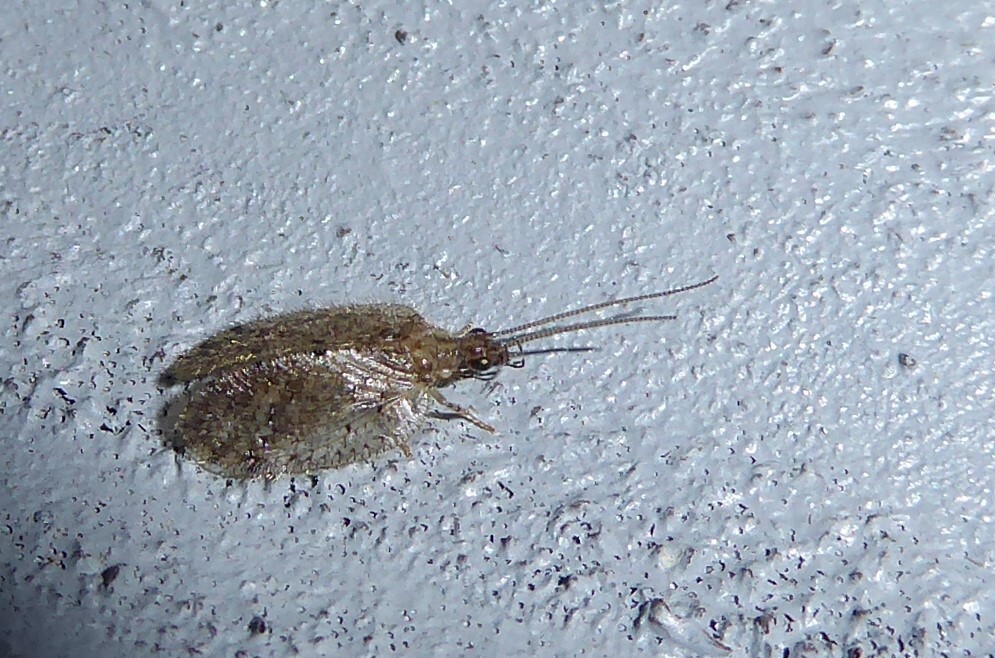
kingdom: Animalia
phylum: Arthropoda
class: Insecta
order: Neuroptera
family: Hemerobiidae
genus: Psectra
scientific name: Psectra nakaharai
